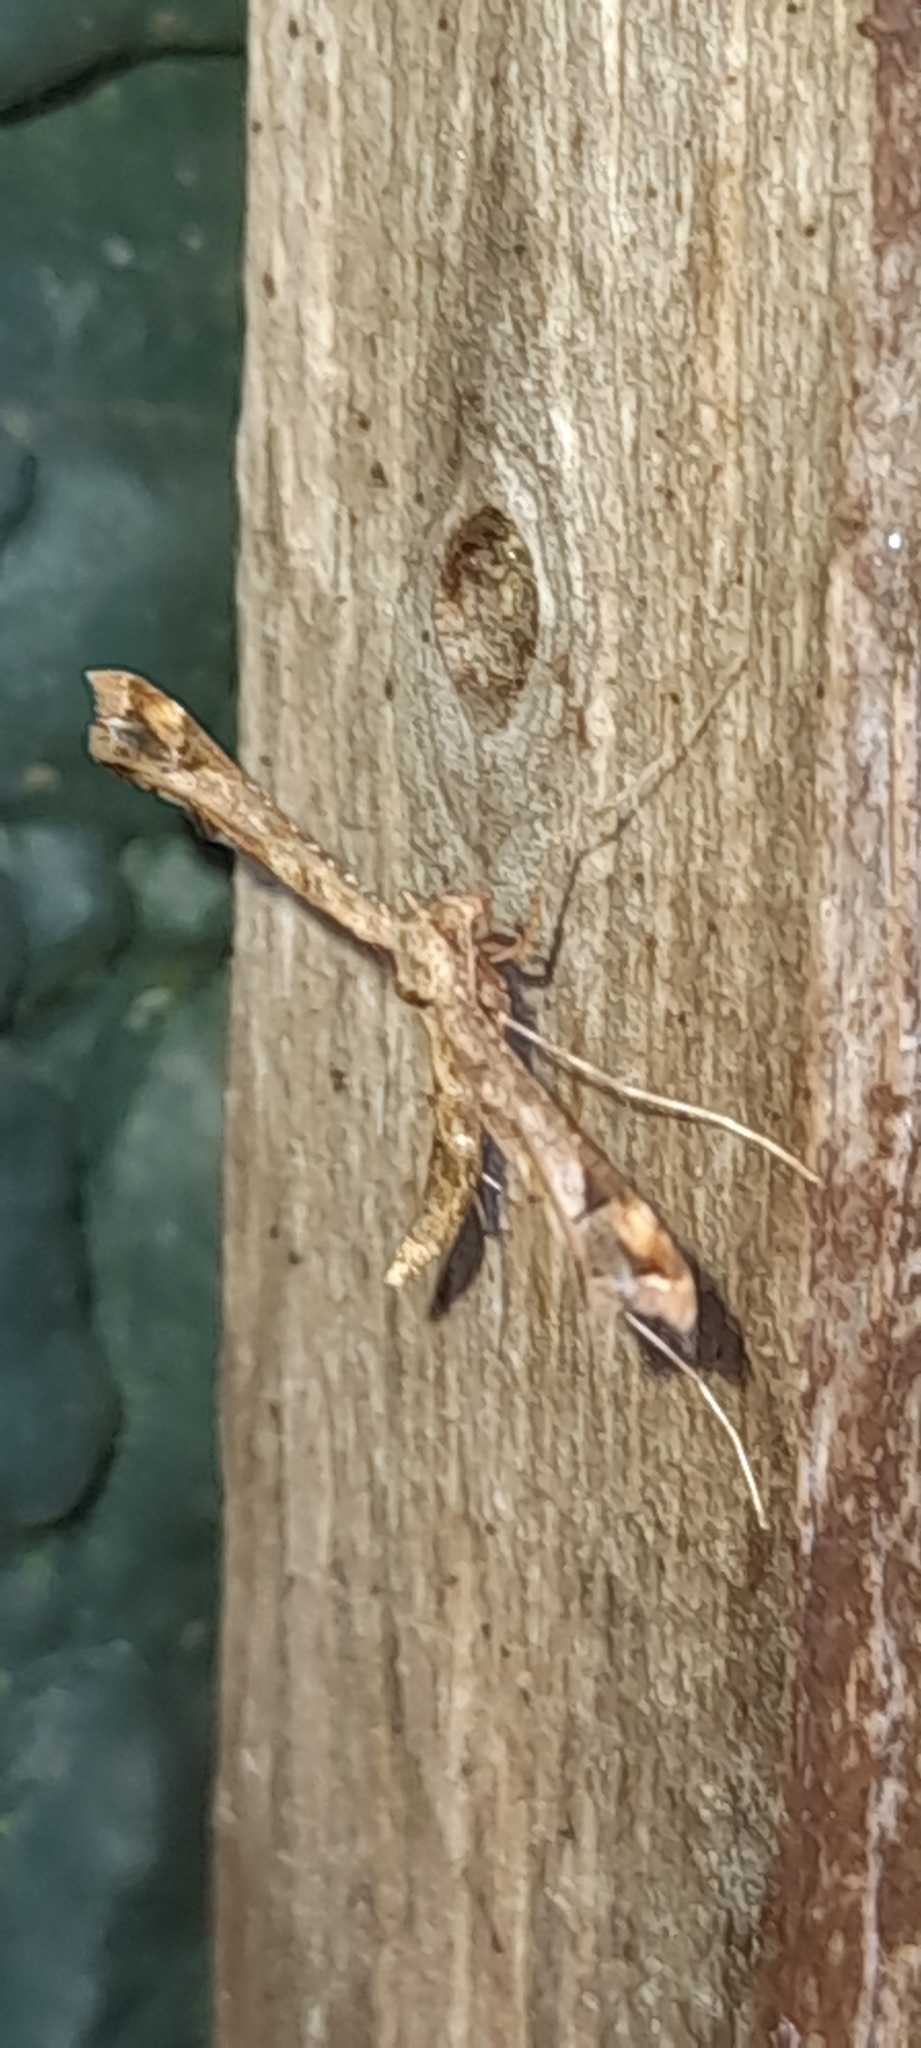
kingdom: Animalia
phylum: Arthropoda
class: Insecta
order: Lepidoptera
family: Pterophoridae
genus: Amblyptilia
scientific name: Amblyptilia acanthadactyla
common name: Beautiful plume
